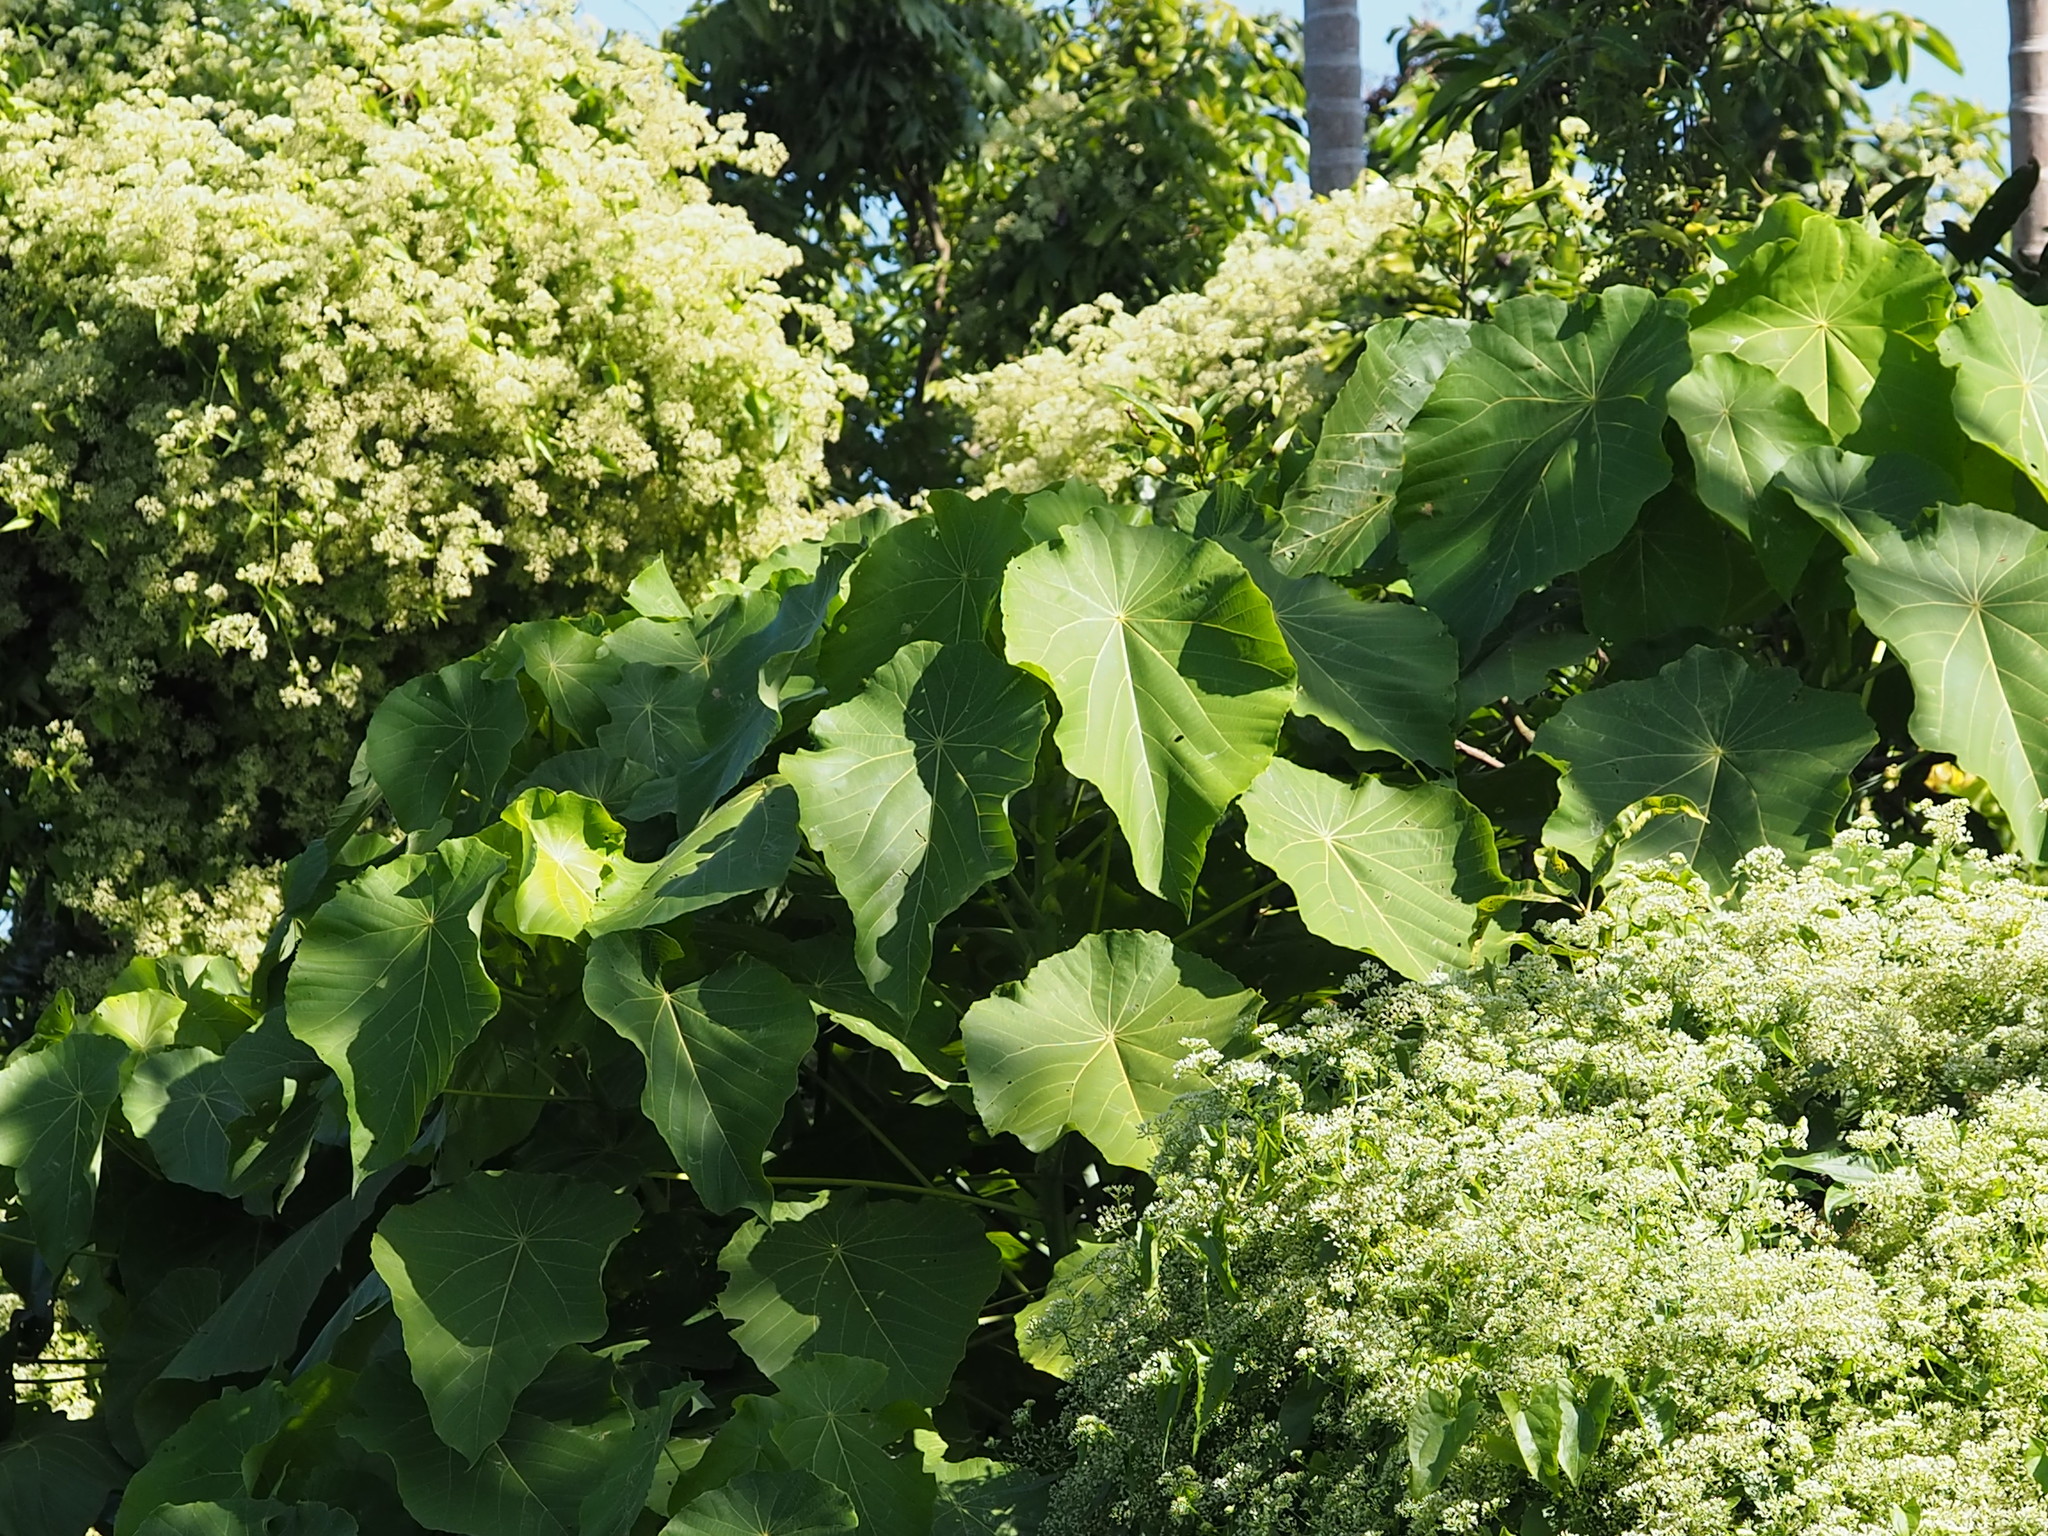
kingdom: Plantae
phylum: Tracheophyta
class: Magnoliopsida
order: Malpighiales
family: Euphorbiaceae
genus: Macaranga
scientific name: Macaranga tanarius
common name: Parasol leaf tree
